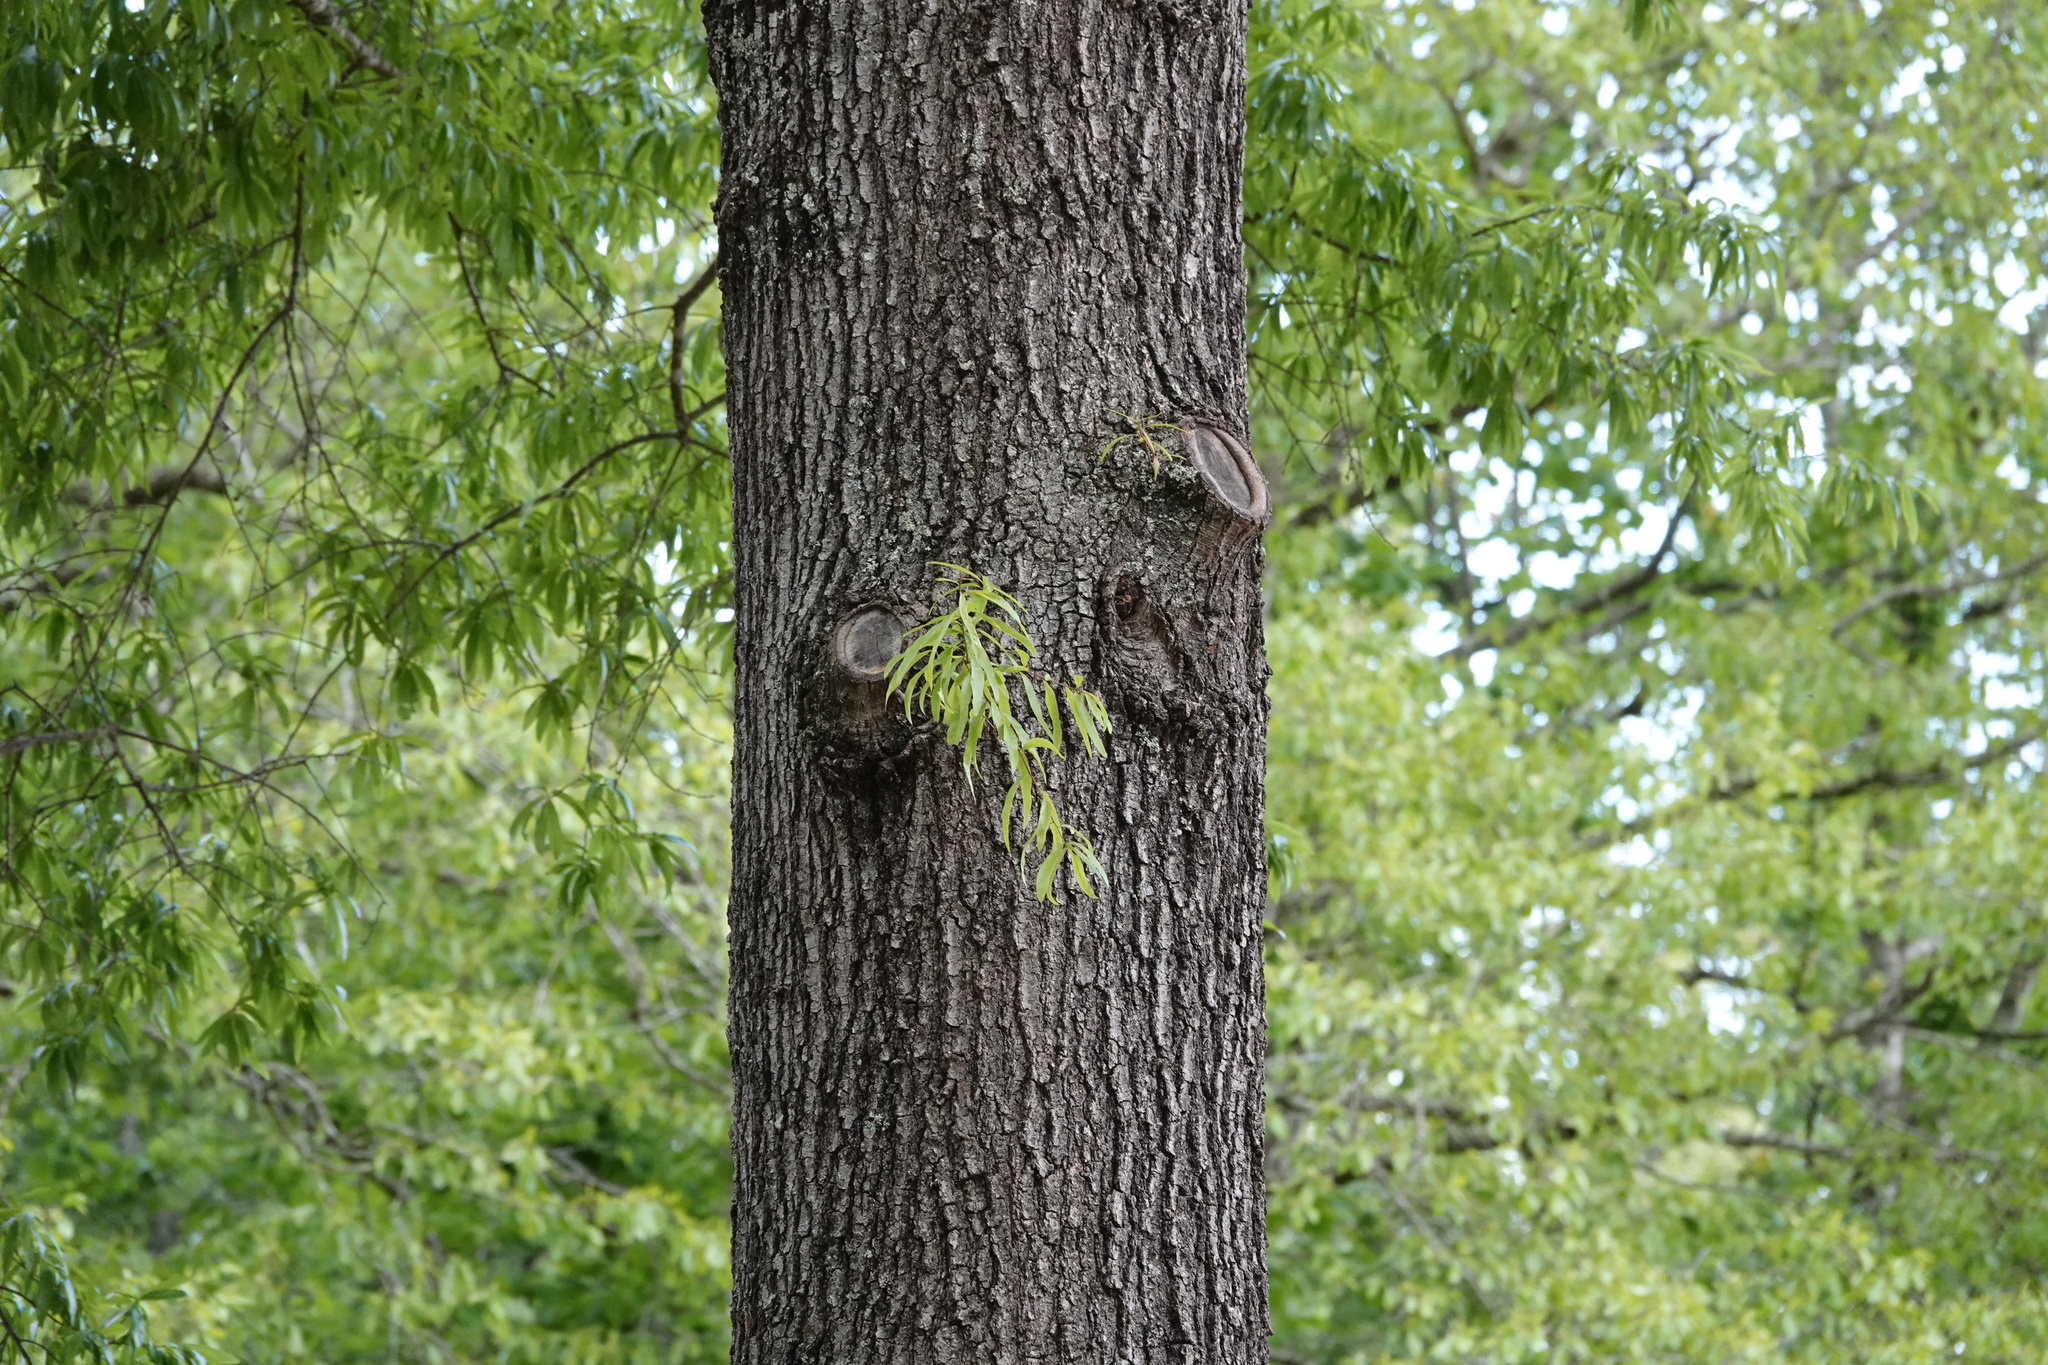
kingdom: Plantae
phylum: Tracheophyta
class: Magnoliopsida
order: Fagales
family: Fagaceae
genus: Quercus
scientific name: Quercus phellos
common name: Willow oak
